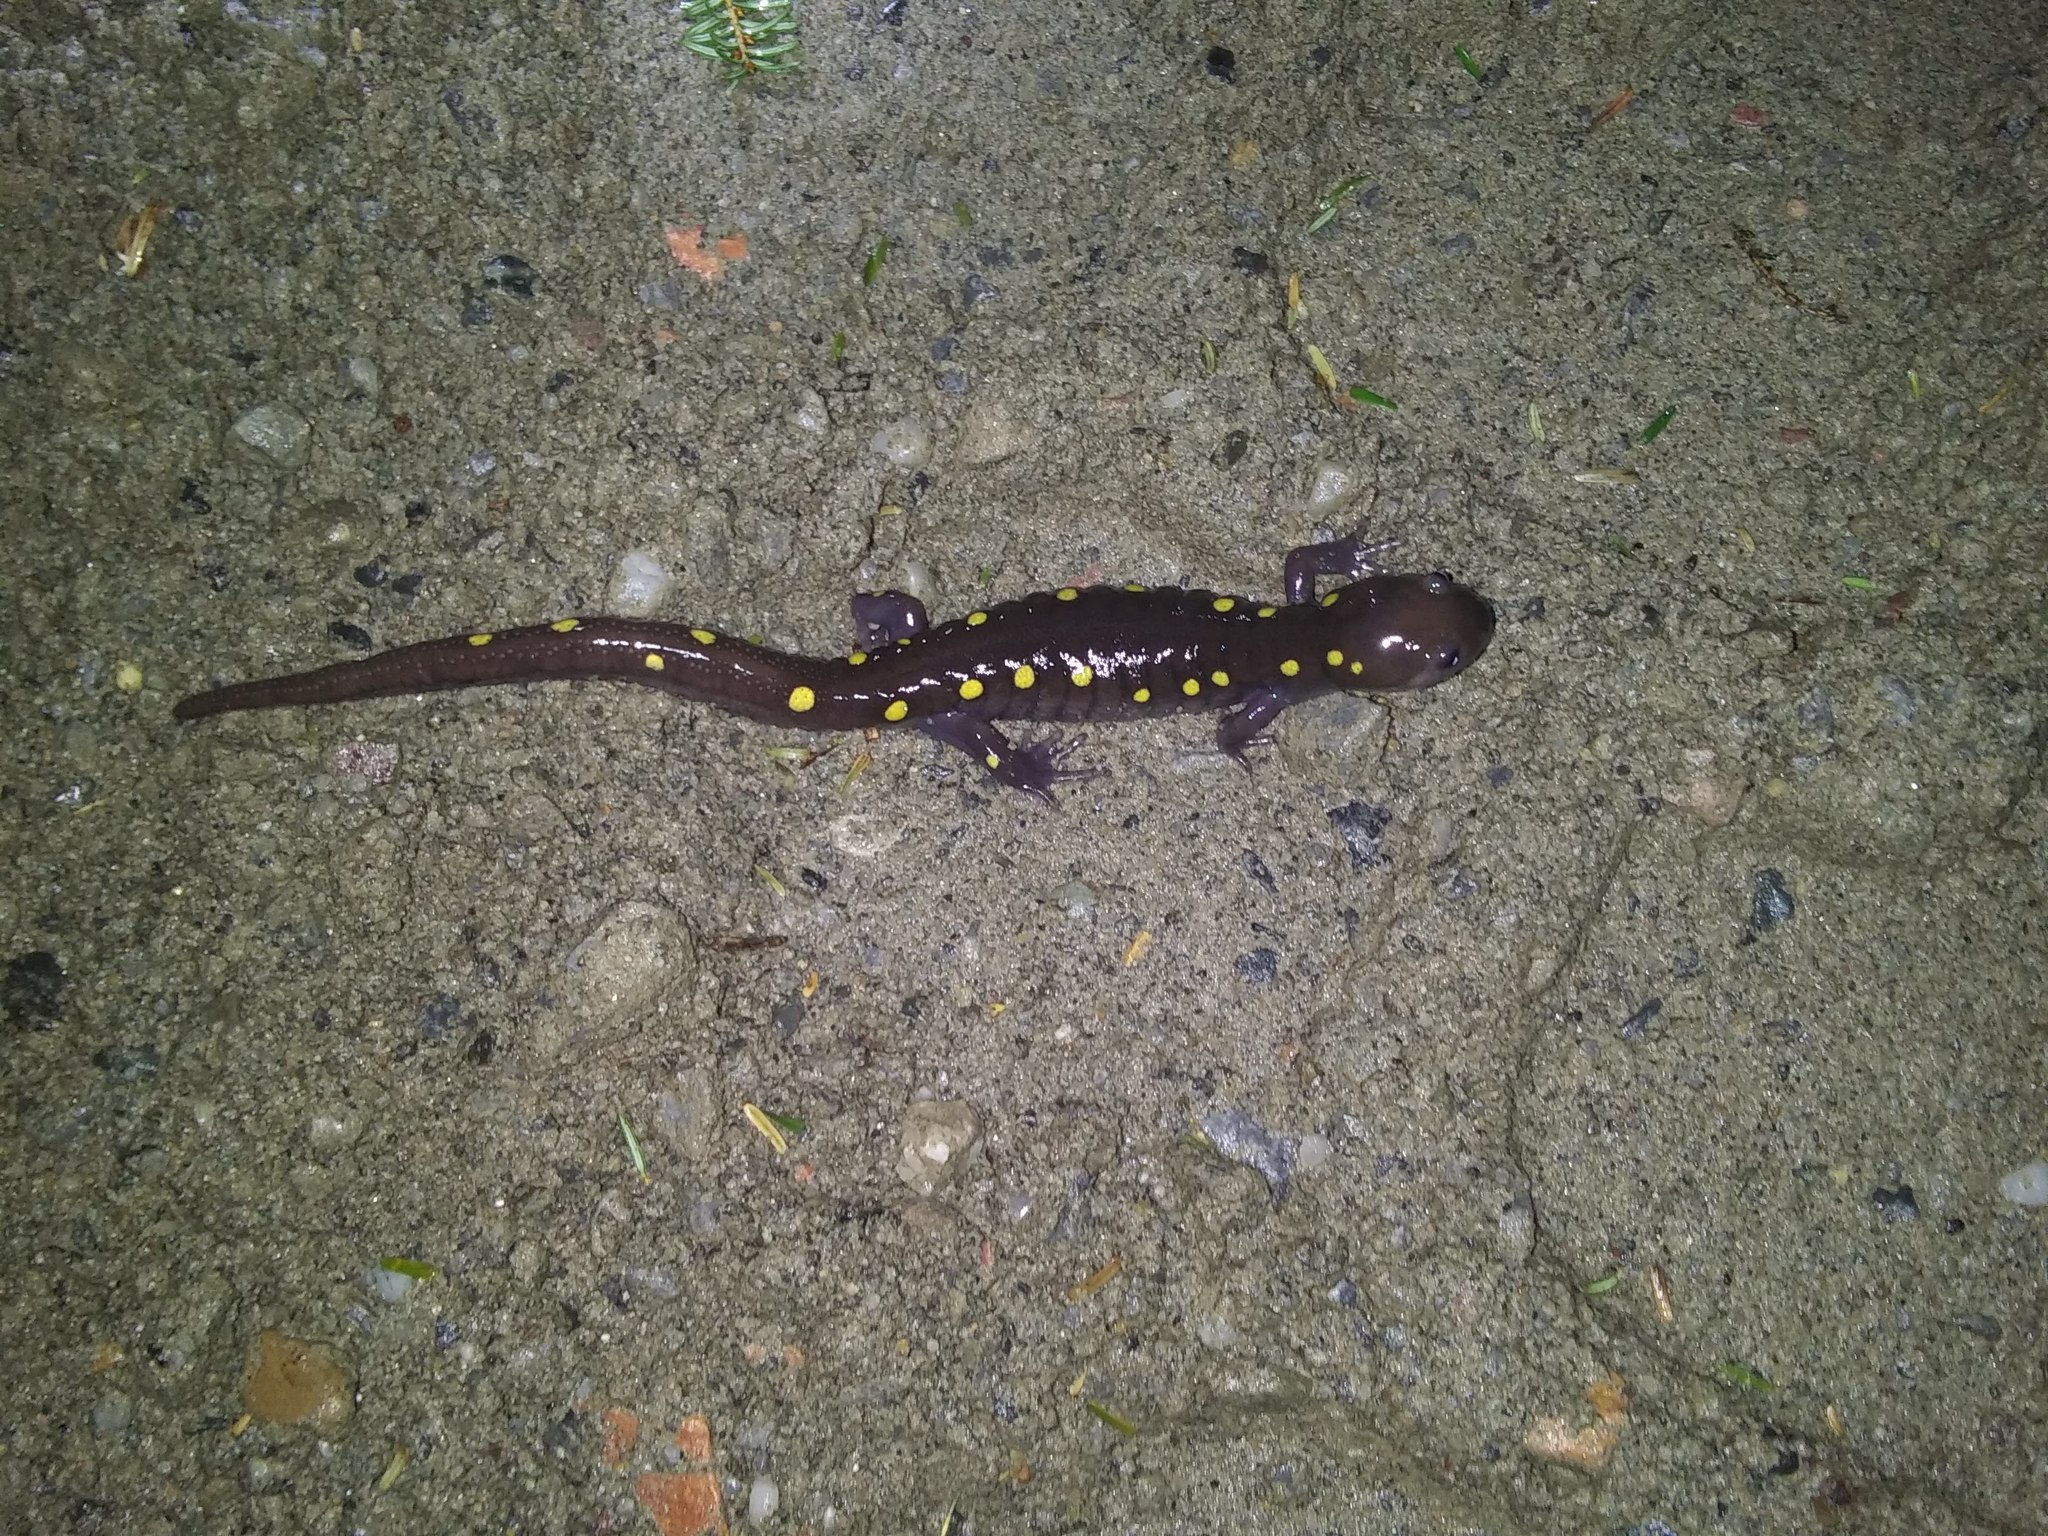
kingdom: Animalia
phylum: Chordata
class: Amphibia
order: Caudata
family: Ambystomatidae
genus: Ambystoma
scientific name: Ambystoma maculatum
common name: Spotted salamander
